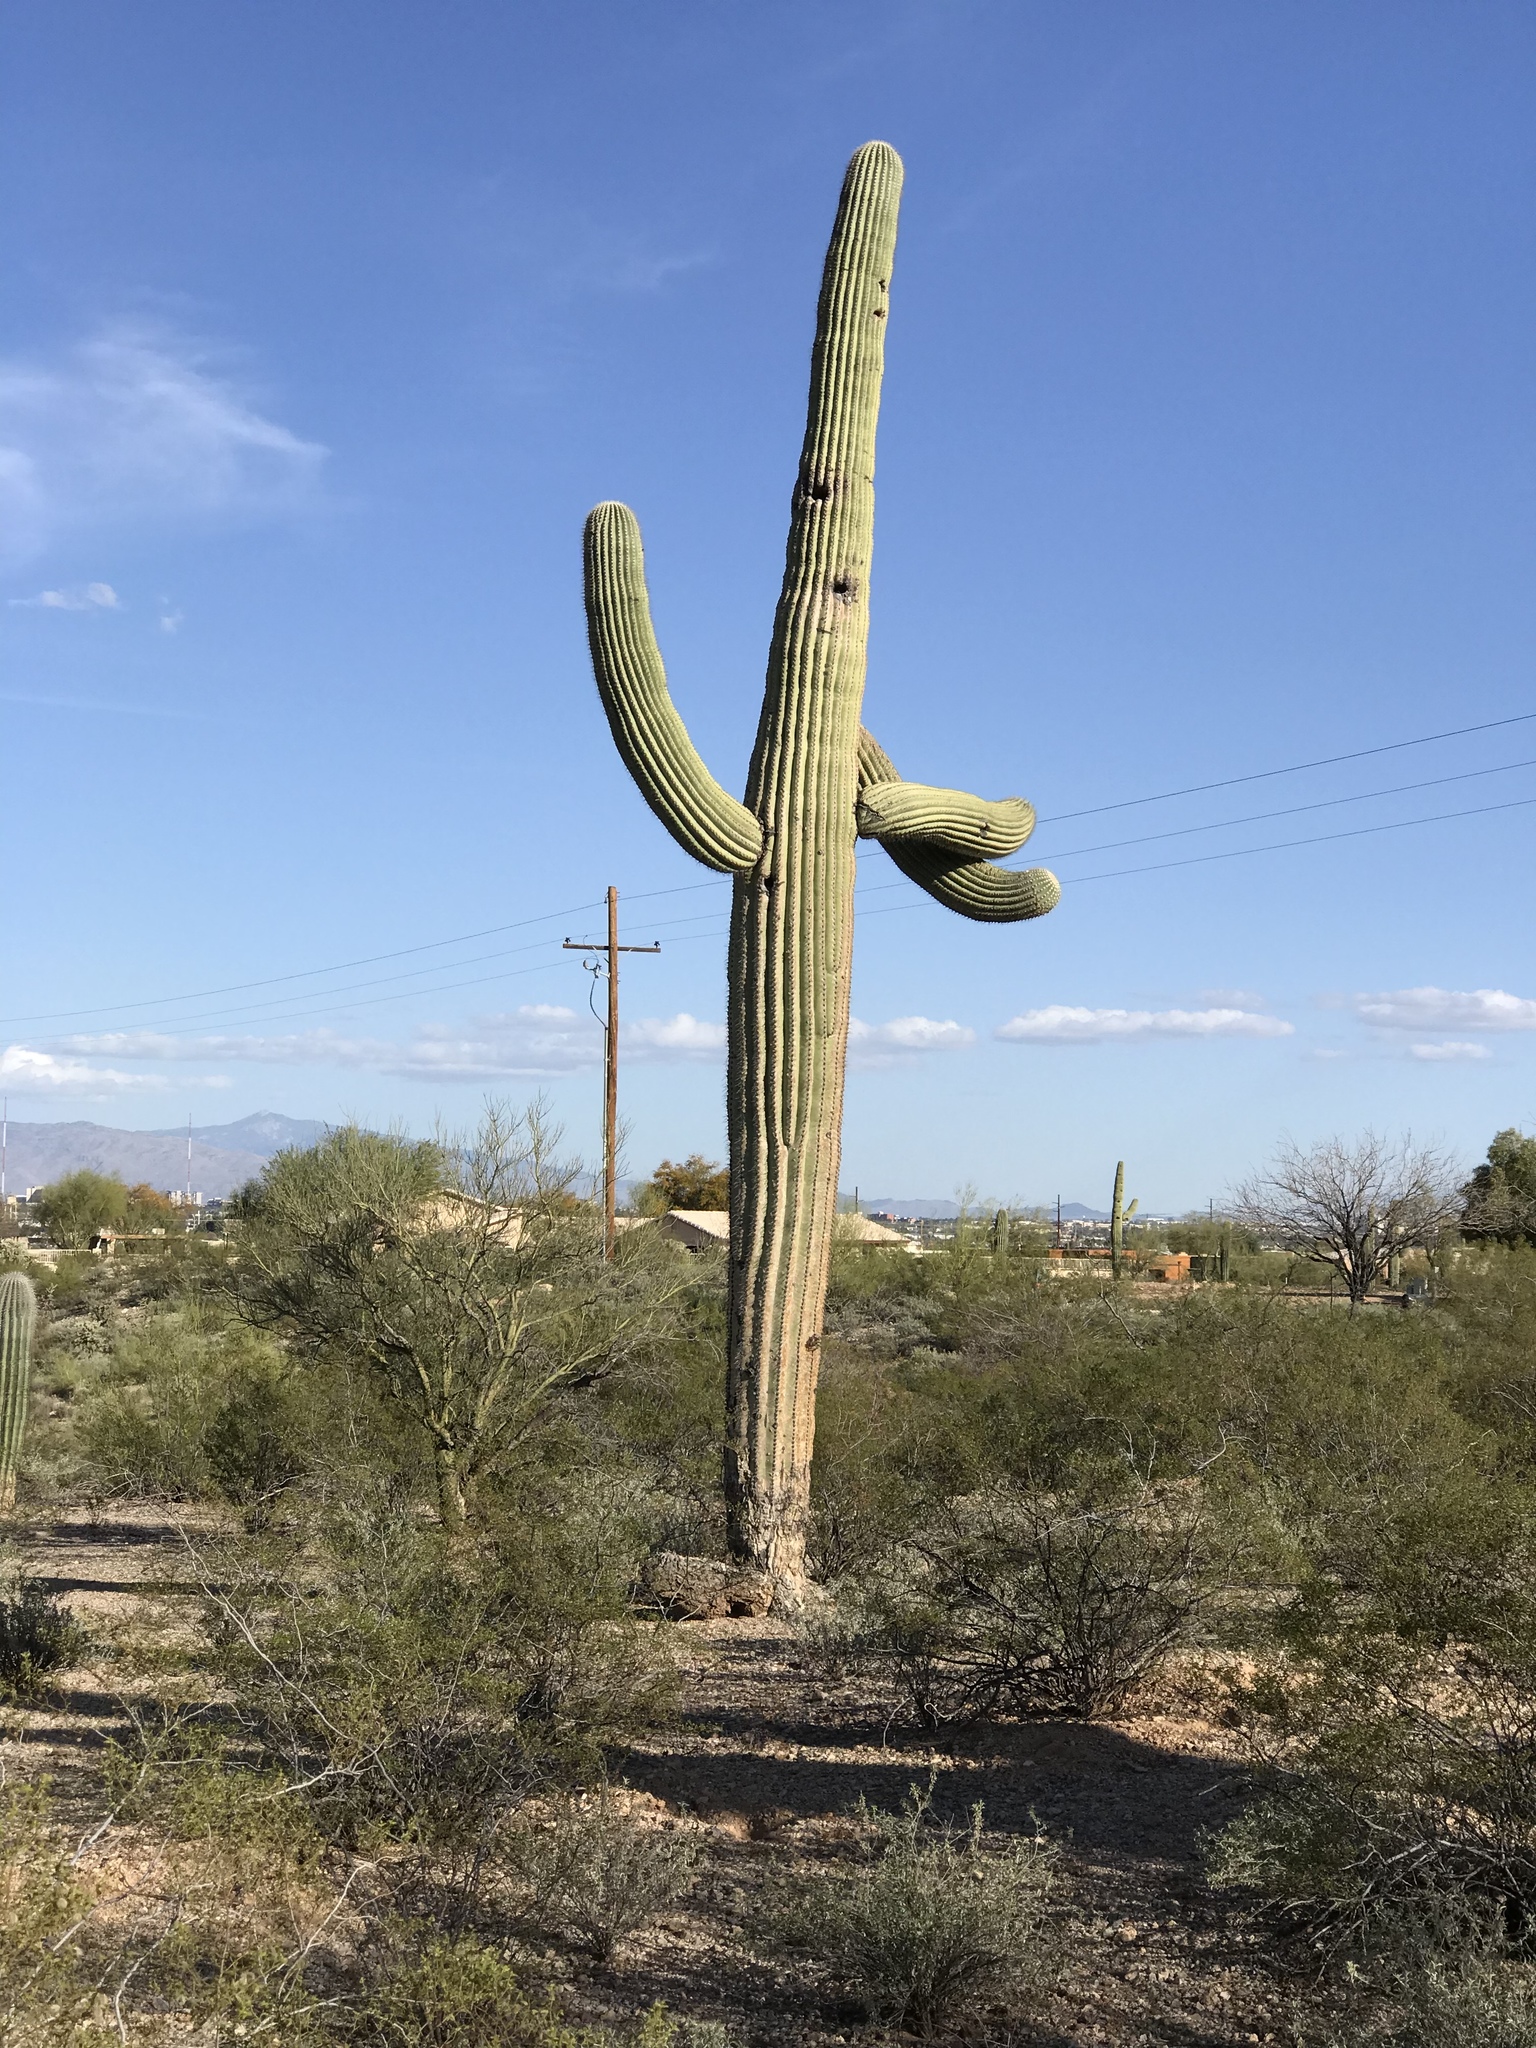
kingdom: Plantae
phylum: Tracheophyta
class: Magnoliopsida
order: Caryophyllales
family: Cactaceae
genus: Carnegiea
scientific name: Carnegiea gigantea
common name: Saguaro
